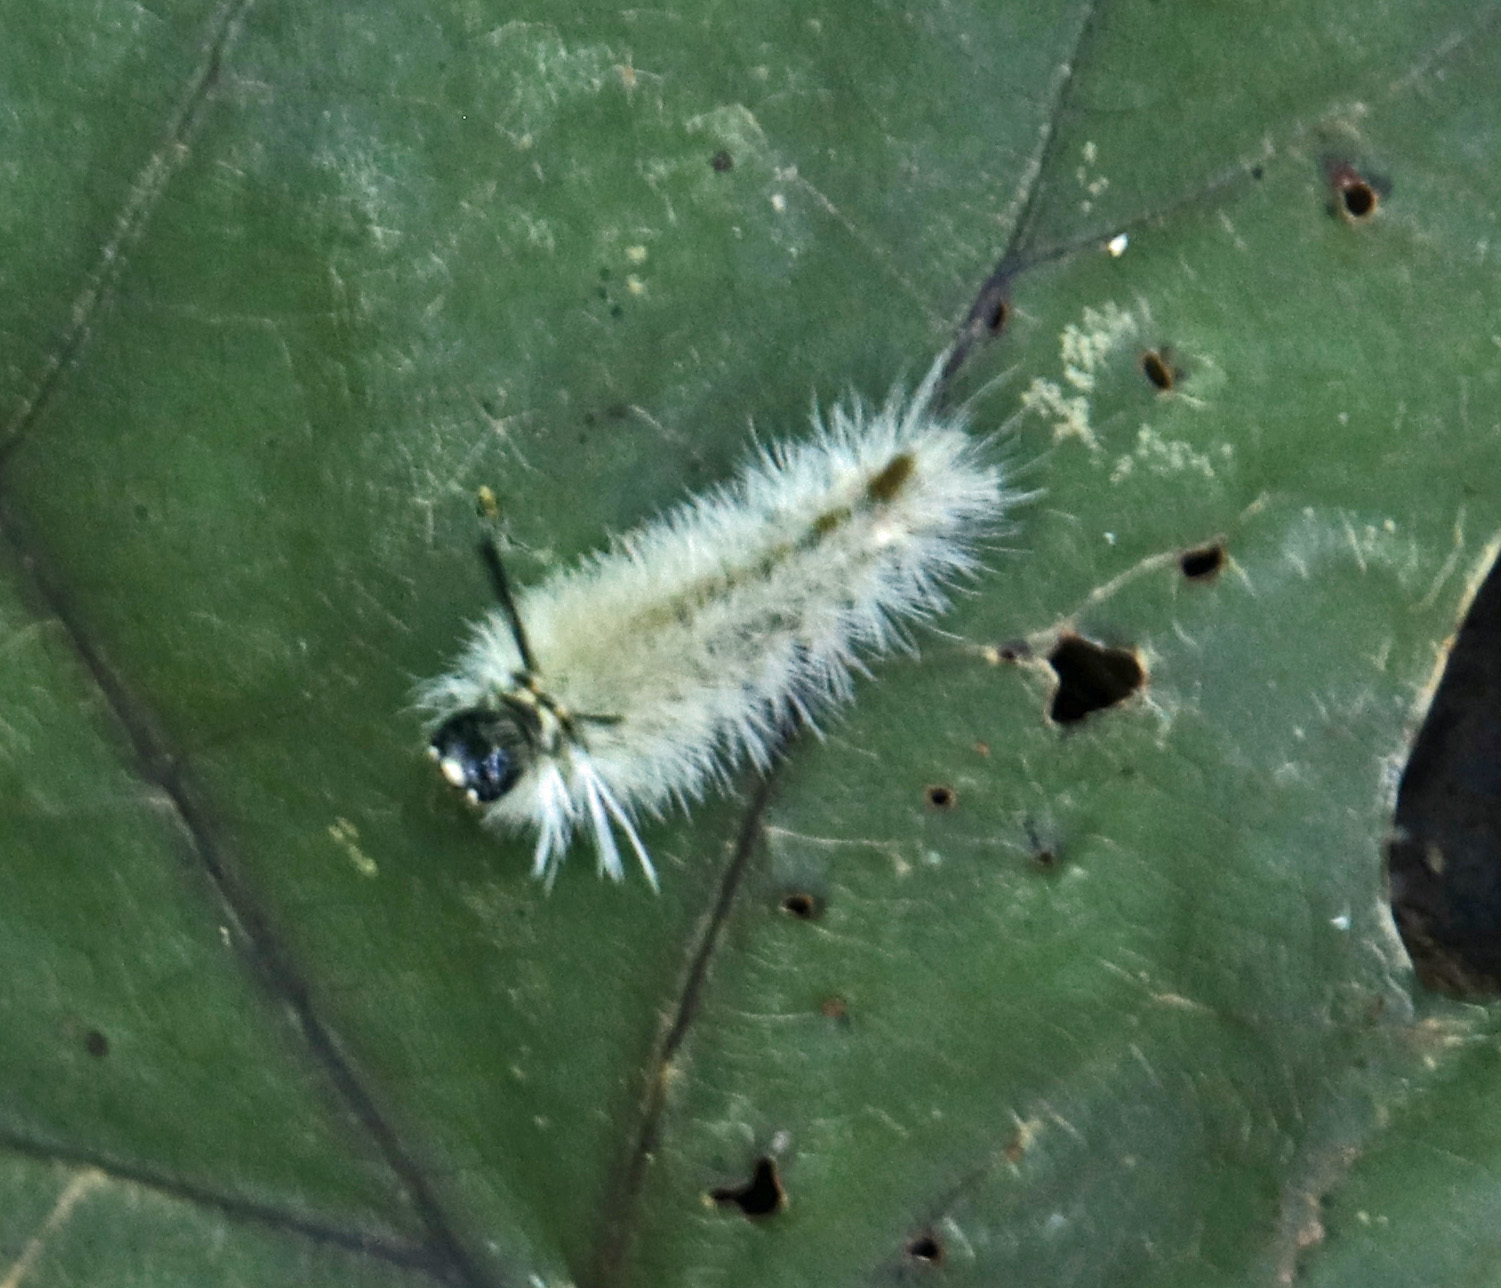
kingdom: Animalia
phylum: Arthropoda
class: Insecta
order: Lepidoptera
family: Erebidae
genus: Halysidota
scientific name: Halysidota tessellaris
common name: Banded tussock moth
